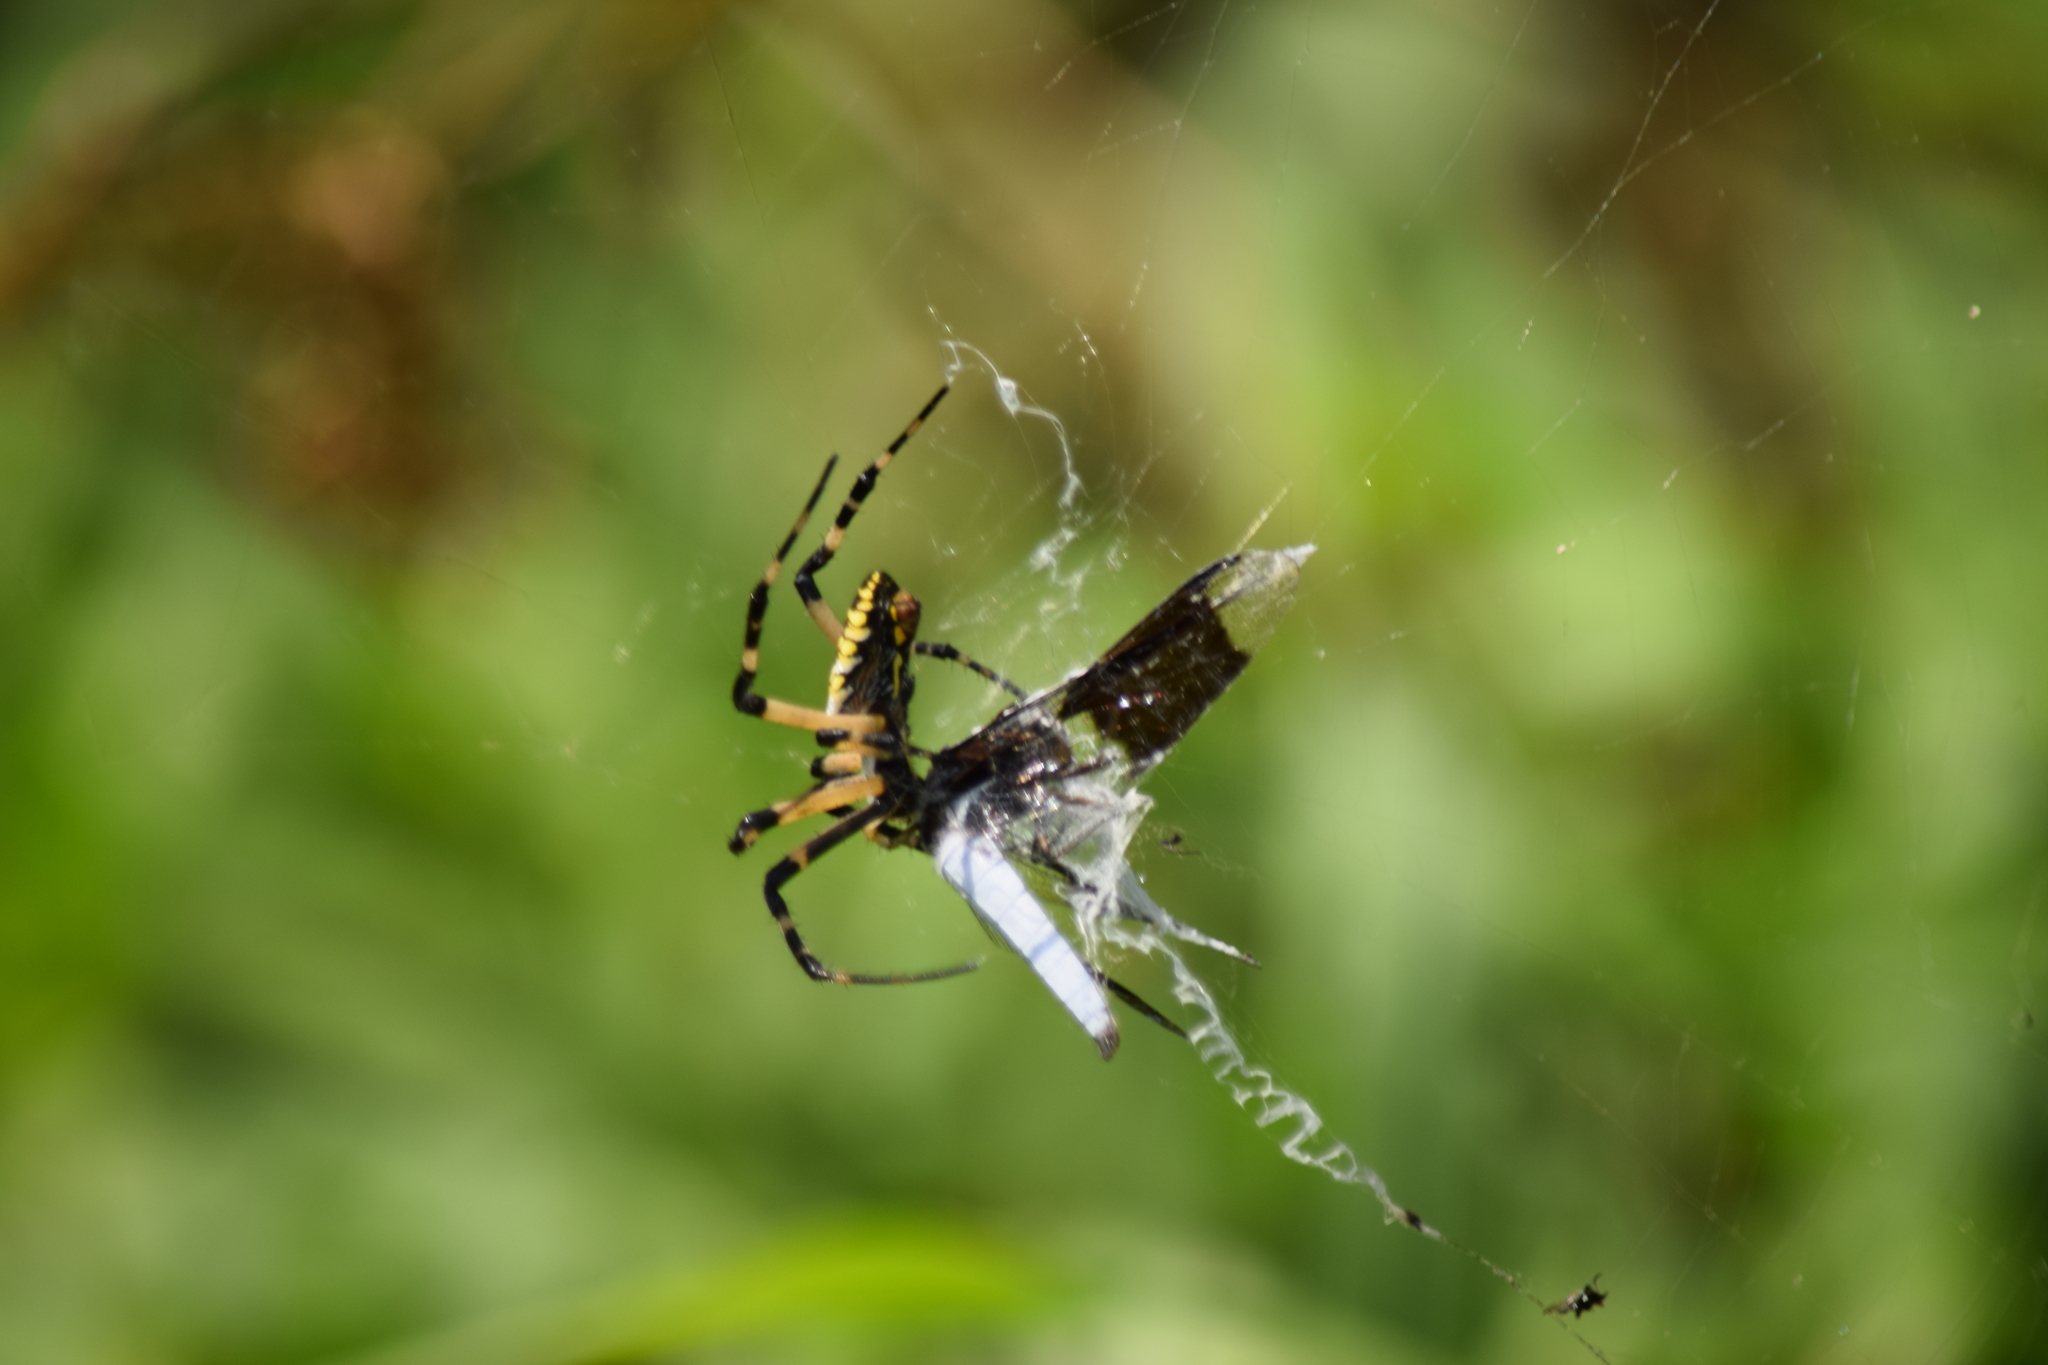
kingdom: Animalia
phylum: Arthropoda
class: Arachnida
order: Araneae
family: Araneidae
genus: Argiope
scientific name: Argiope aurantia
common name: Orb weavers
